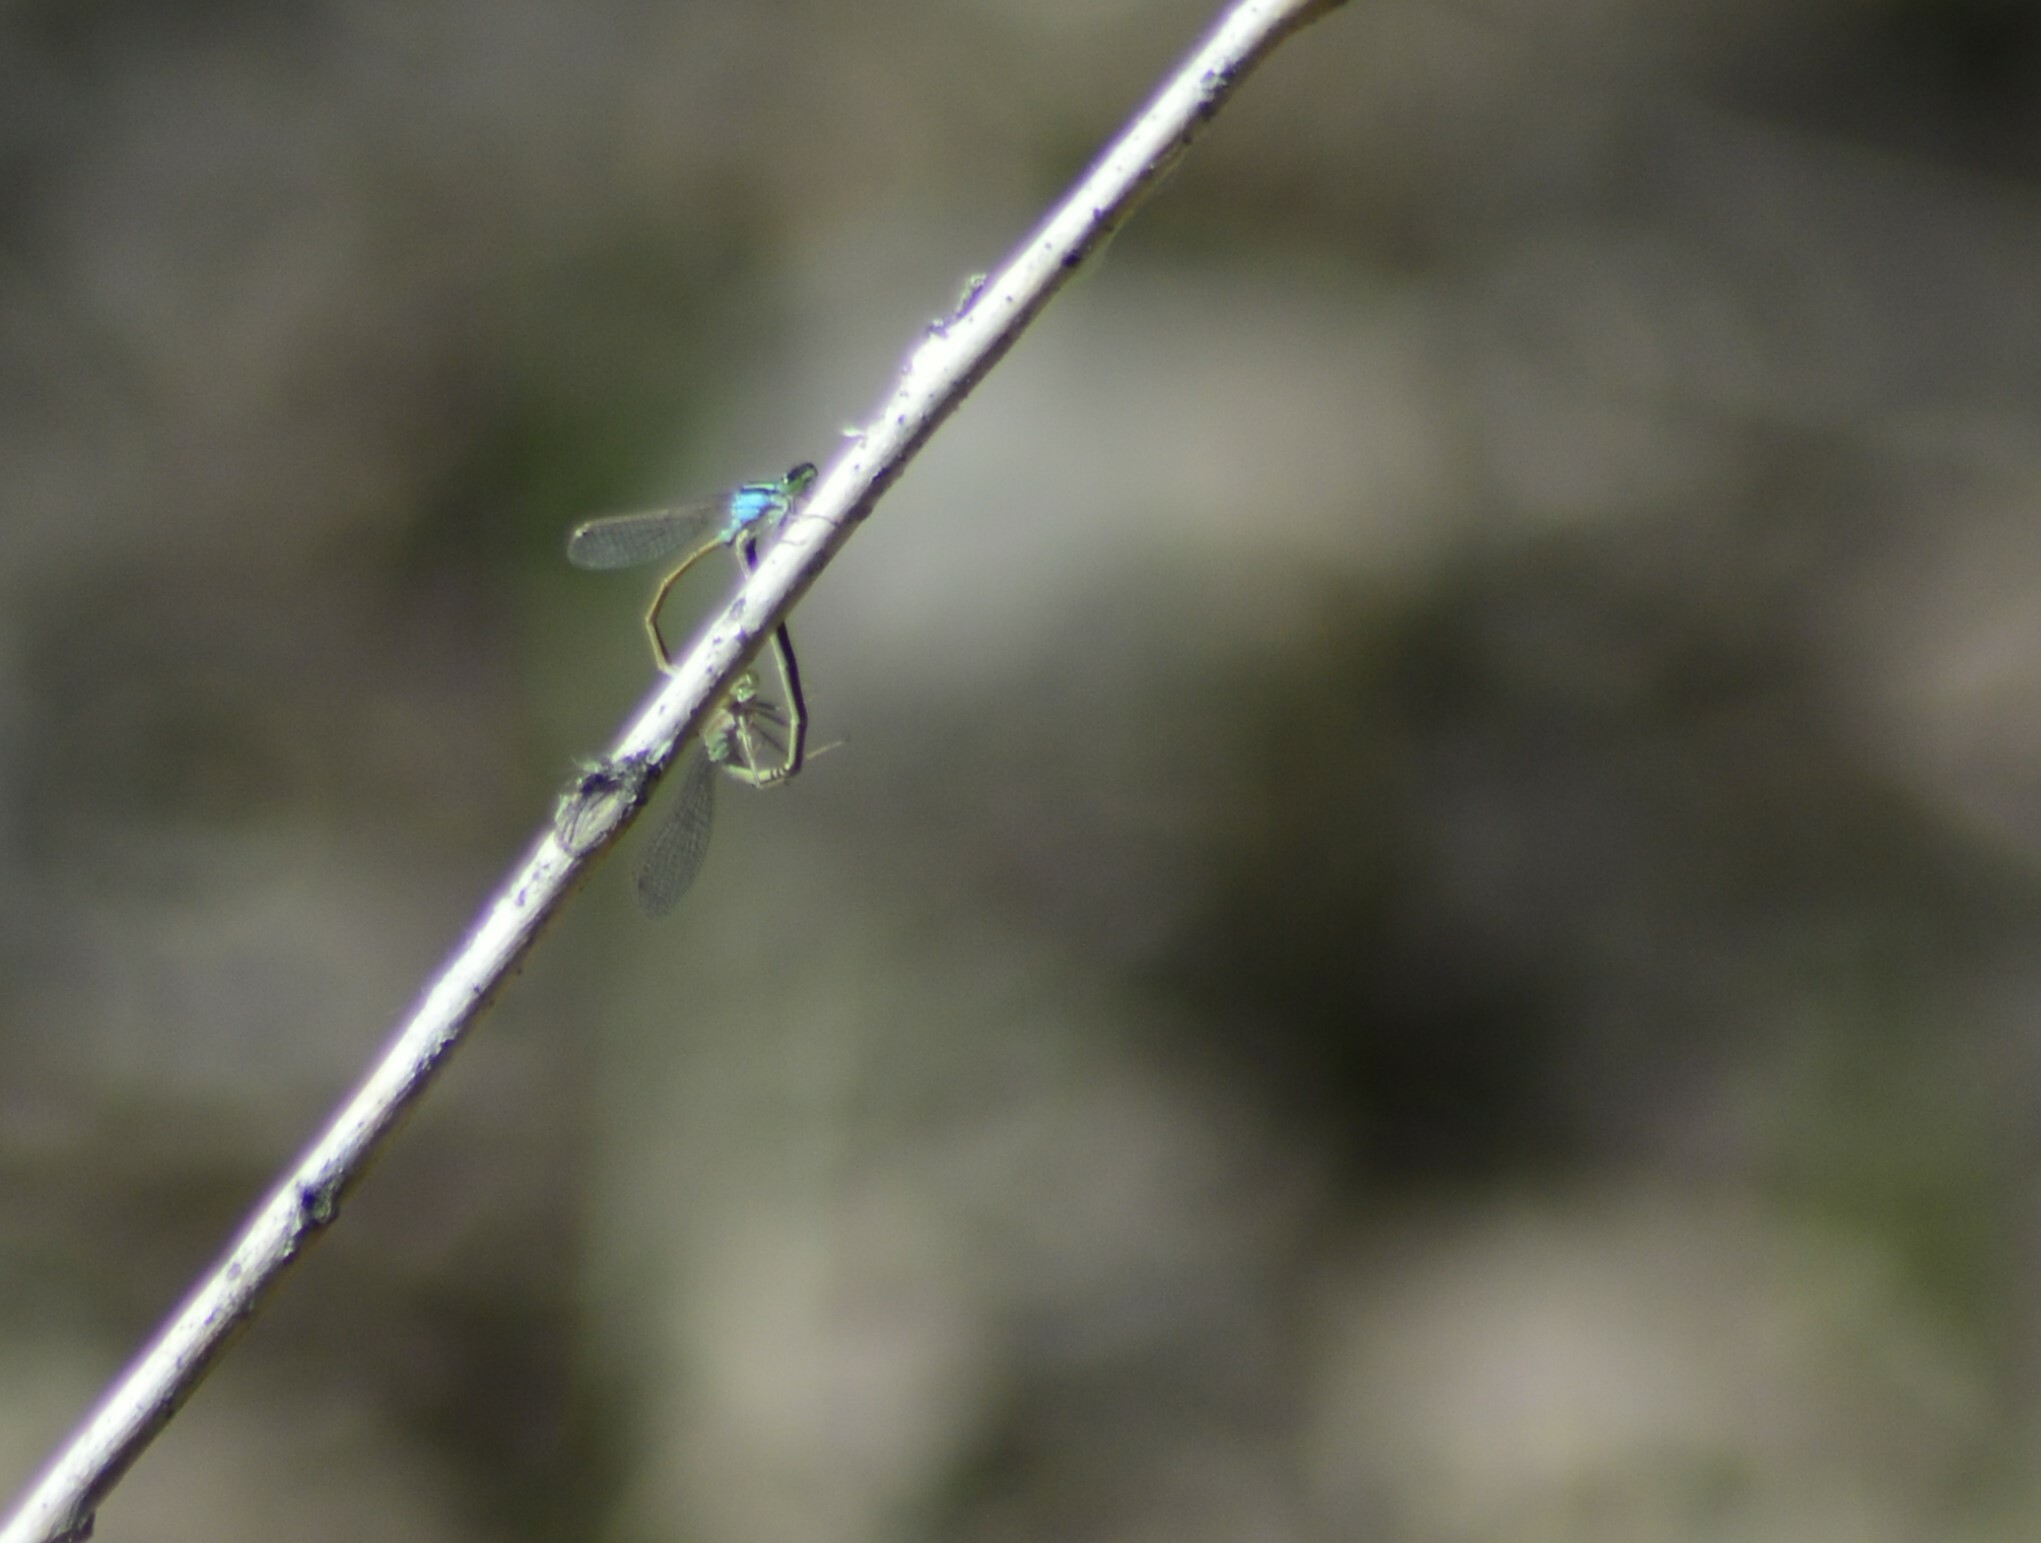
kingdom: Animalia
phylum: Arthropoda
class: Insecta
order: Odonata
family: Coenagrionidae
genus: Ischnura
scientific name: Ischnura fluviatilis
